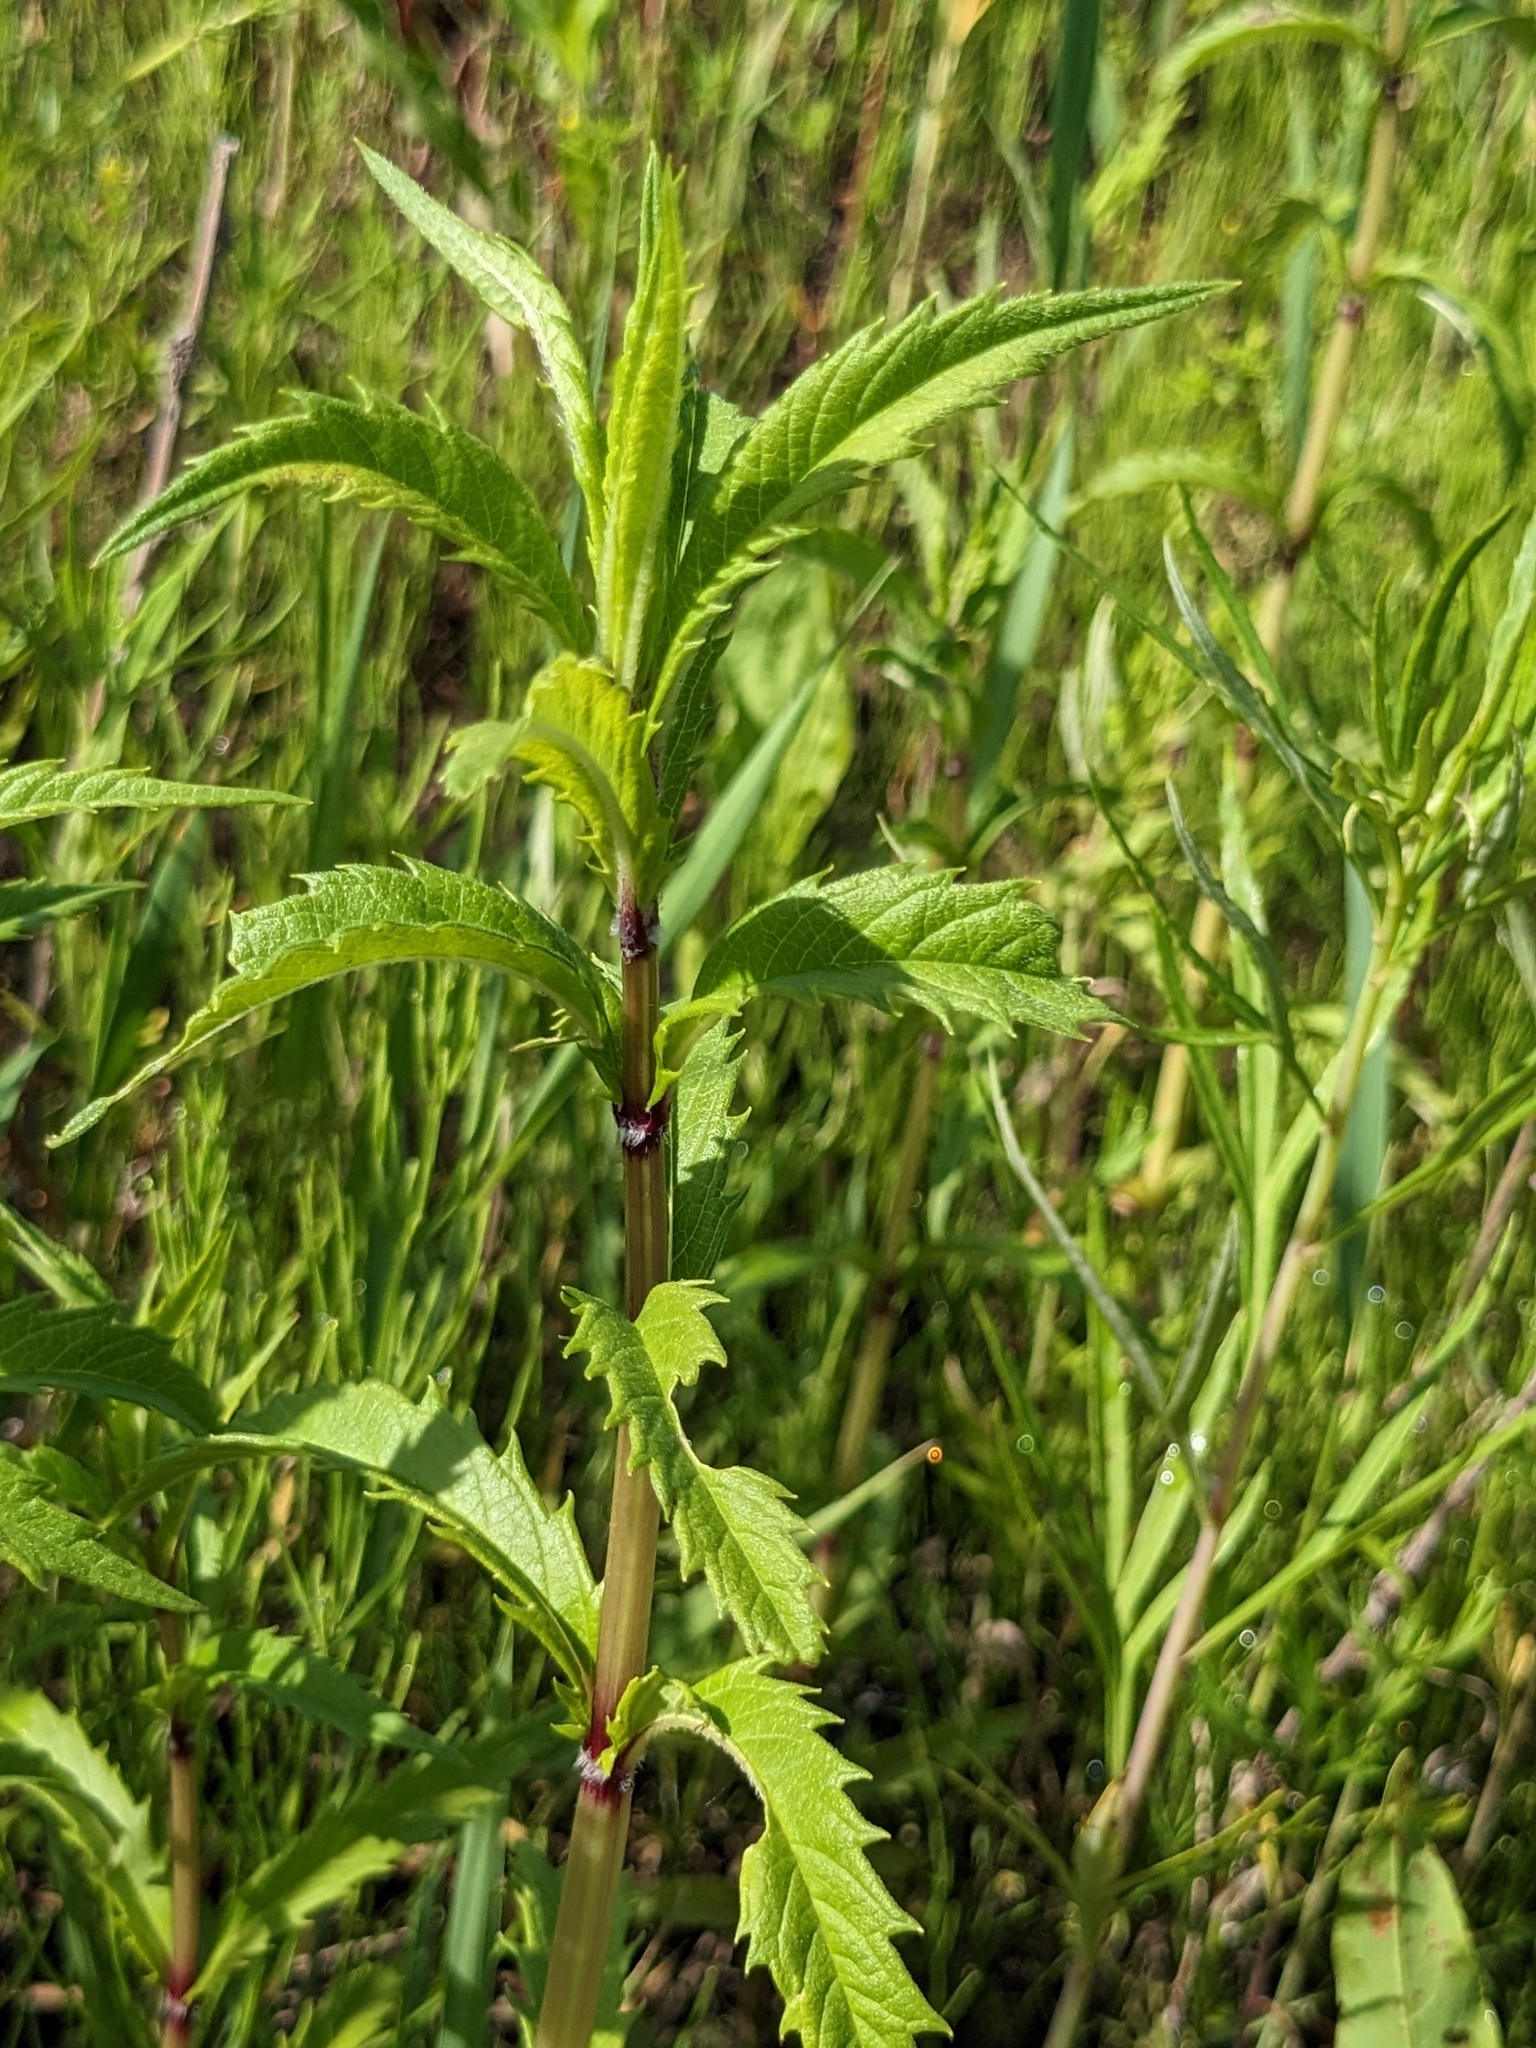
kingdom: Plantae
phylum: Tracheophyta
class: Magnoliopsida
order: Lamiales
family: Lamiaceae
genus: Lycopus
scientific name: Lycopus lucidus
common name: Shiny bugleweed
